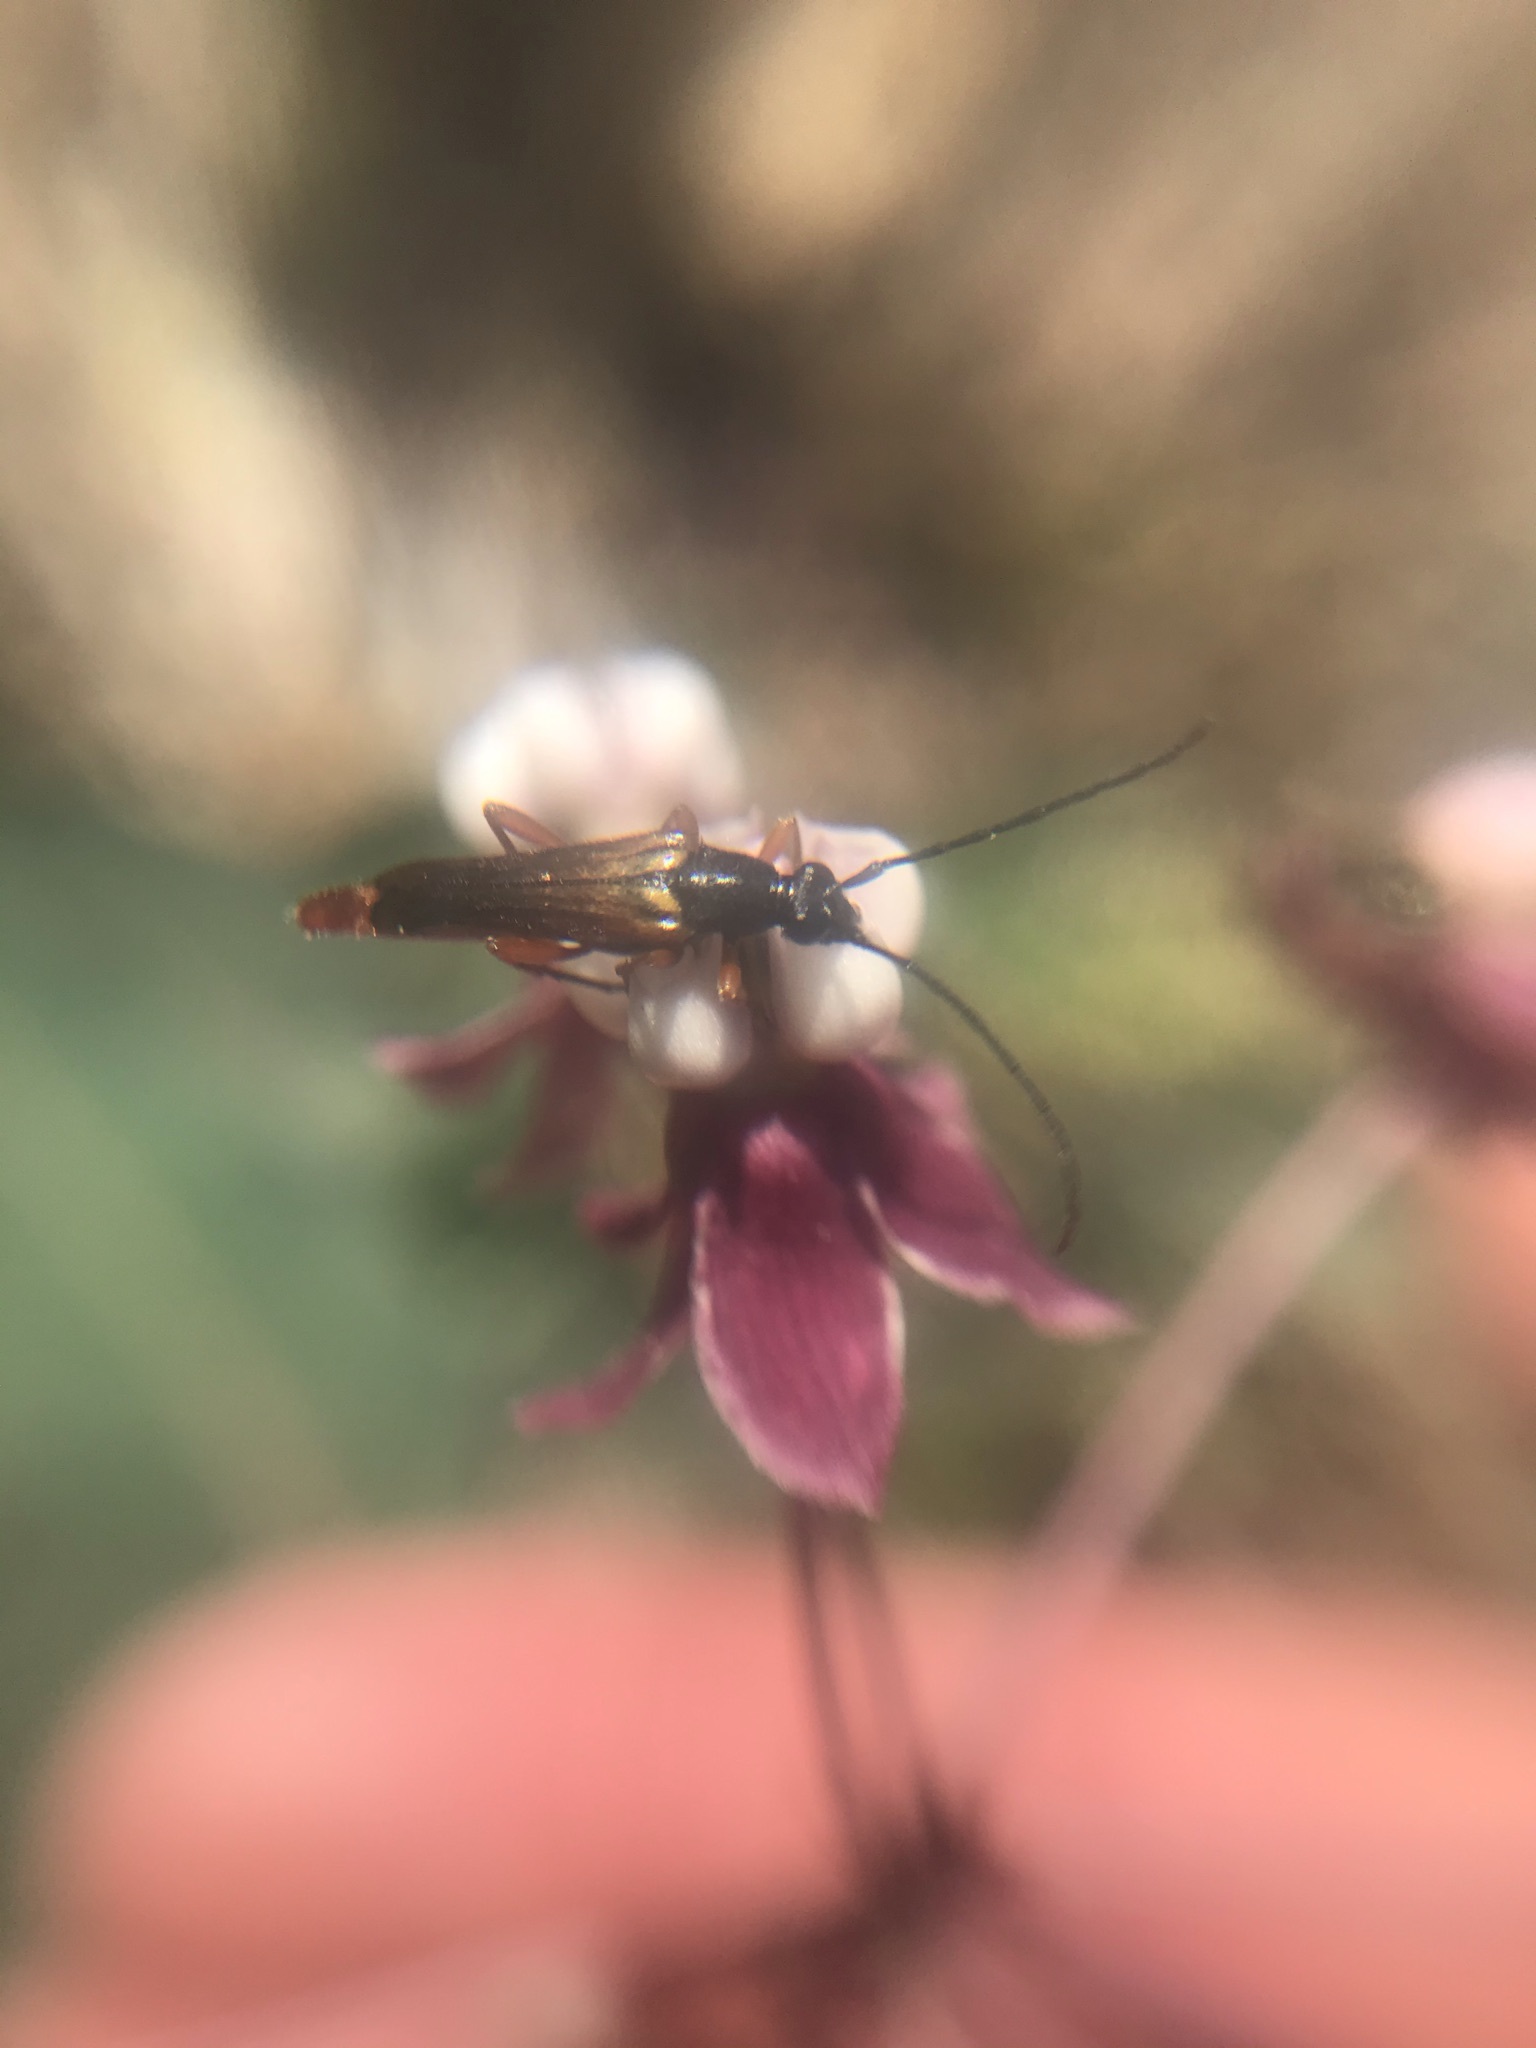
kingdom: Animalia
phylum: Arthropoda
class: Insecta
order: Coleoptera
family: Cerambycidae
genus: Neobellamira
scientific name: Neobellamira delicata
